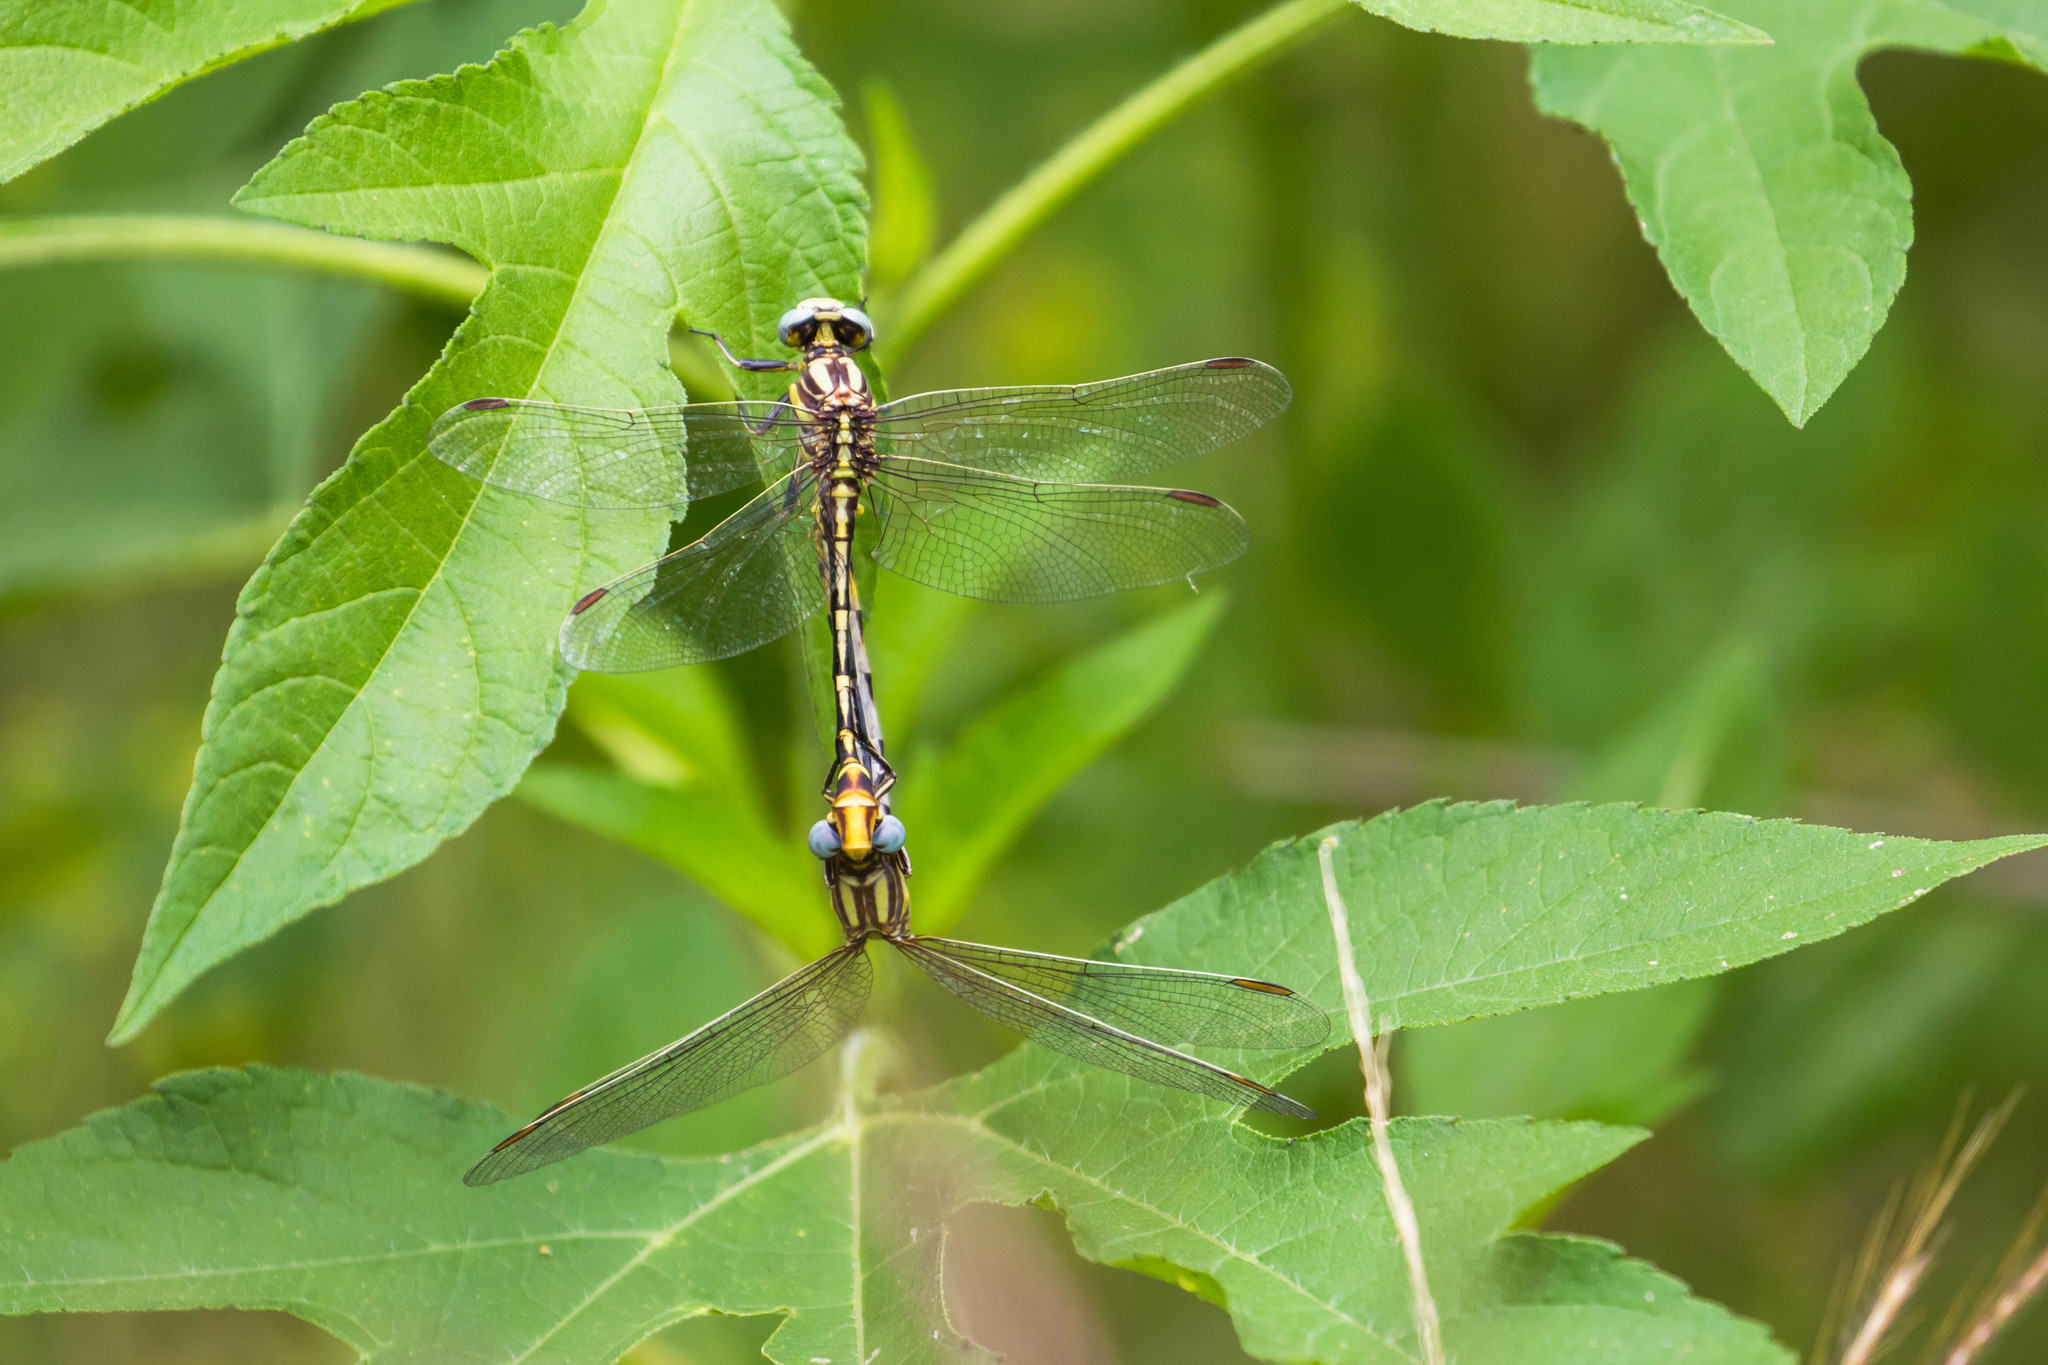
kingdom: Animalia
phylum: Arthropoda
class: Insecta
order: Odonata
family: Gomphidae
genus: Phanogomphus
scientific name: Phanogomphus militaris
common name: Sulphur-tipped clubtail
